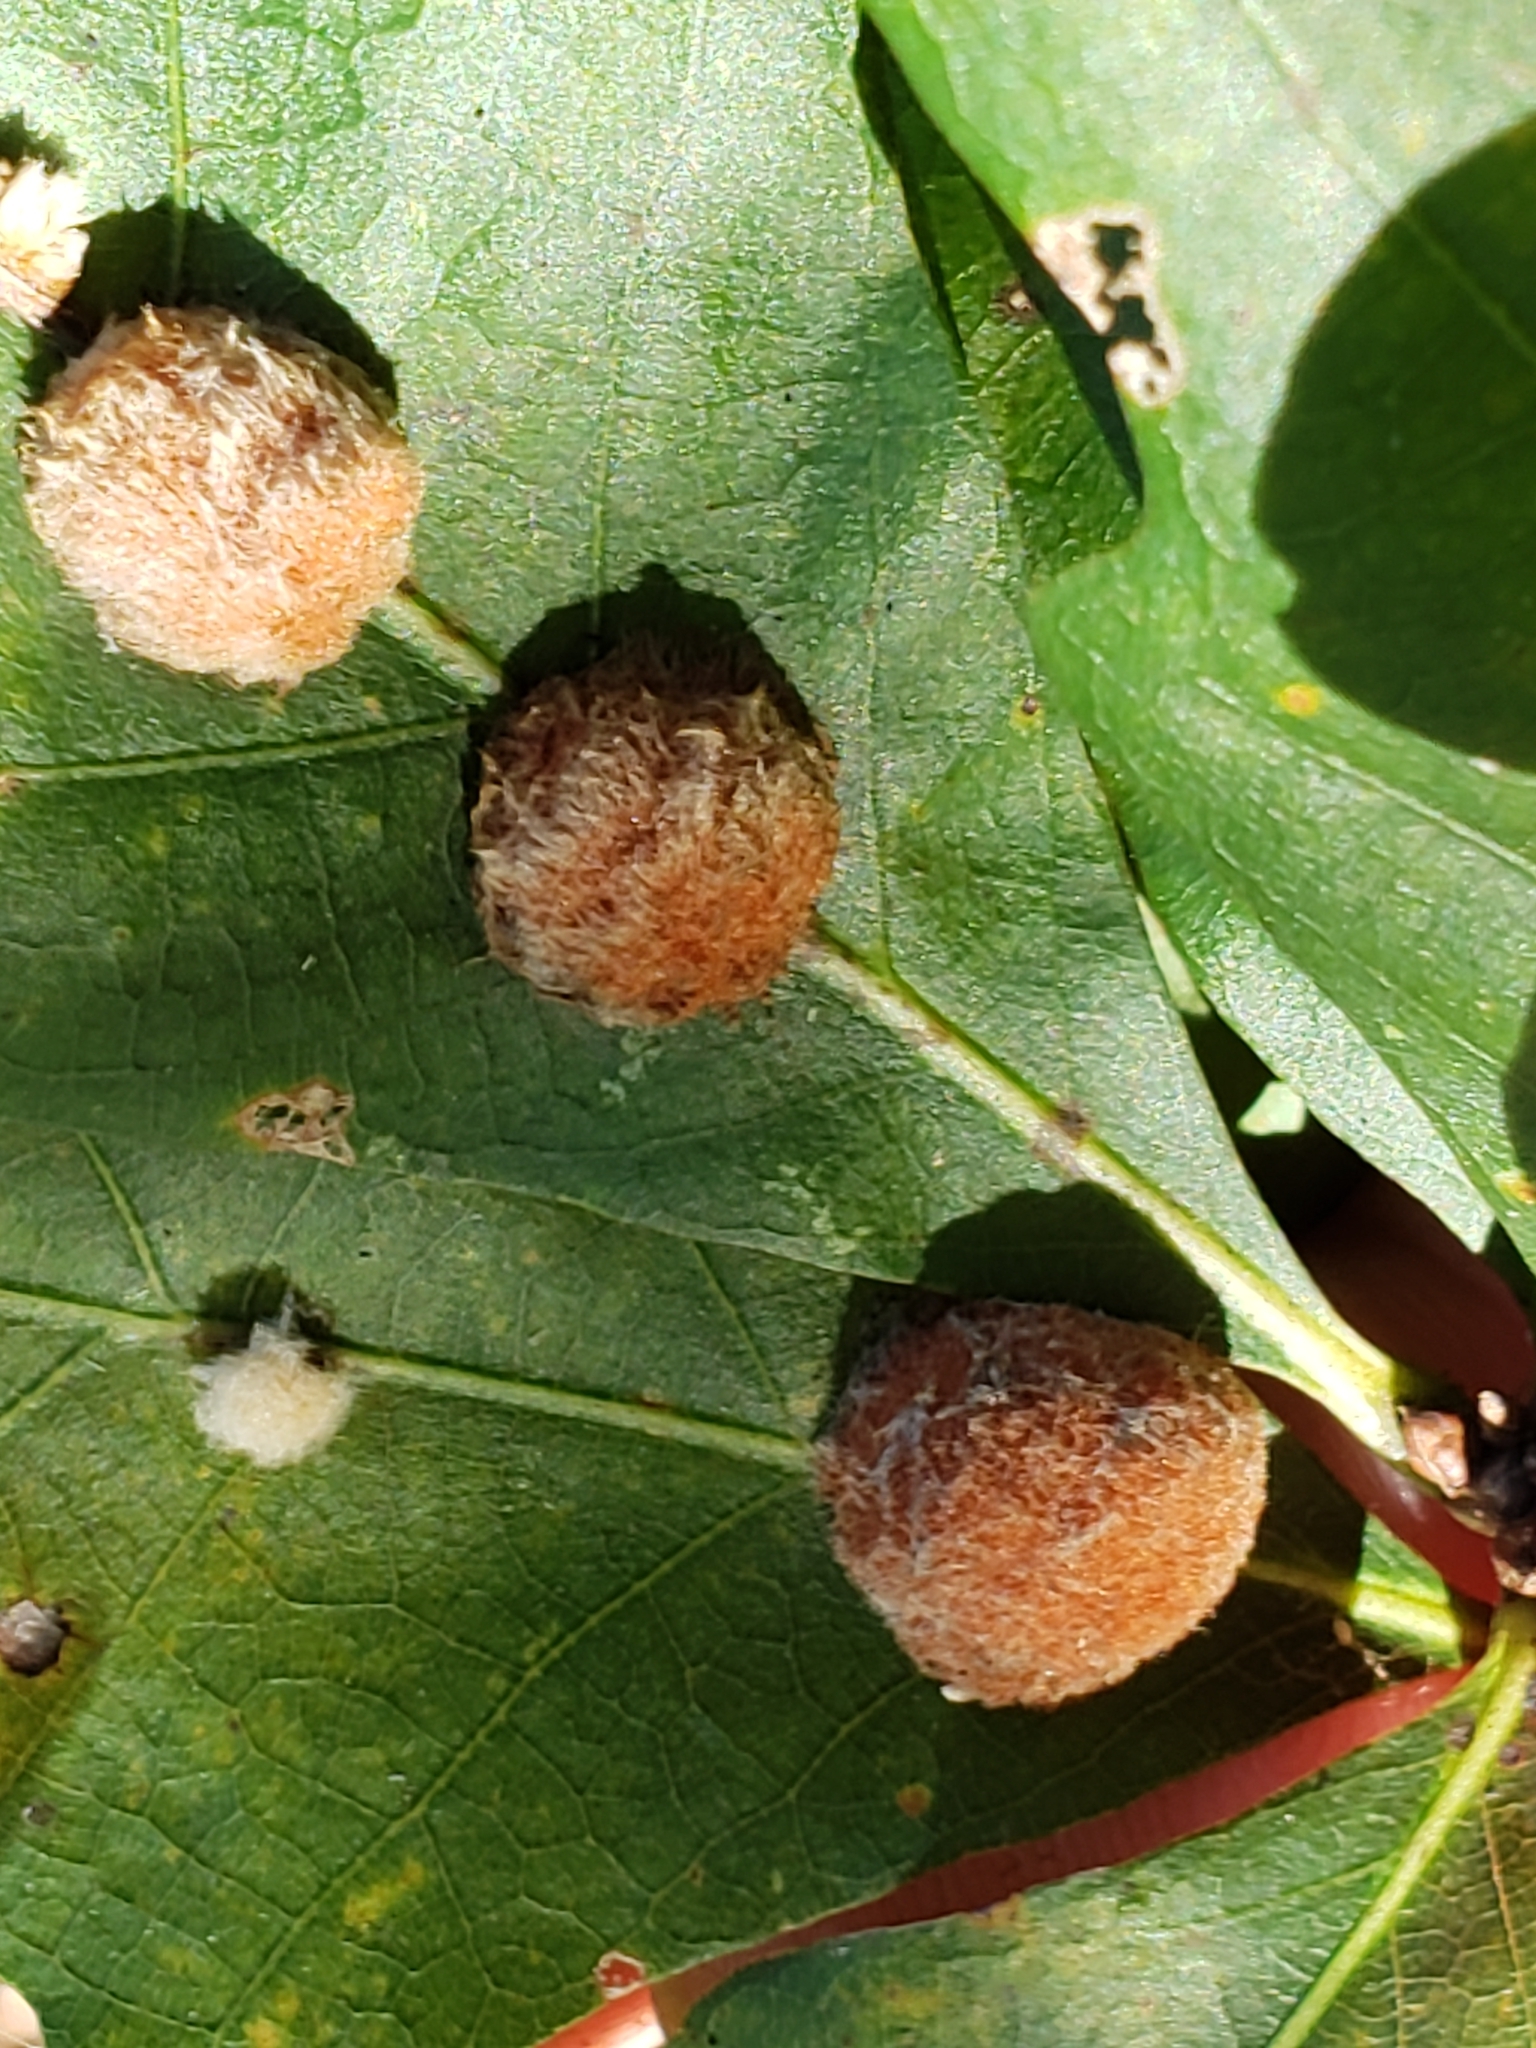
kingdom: Animalia
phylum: Arthropoda
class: Insecta
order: Hymenoptera
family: Cynipidae
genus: Andricus
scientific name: Andricus quercusflocci
